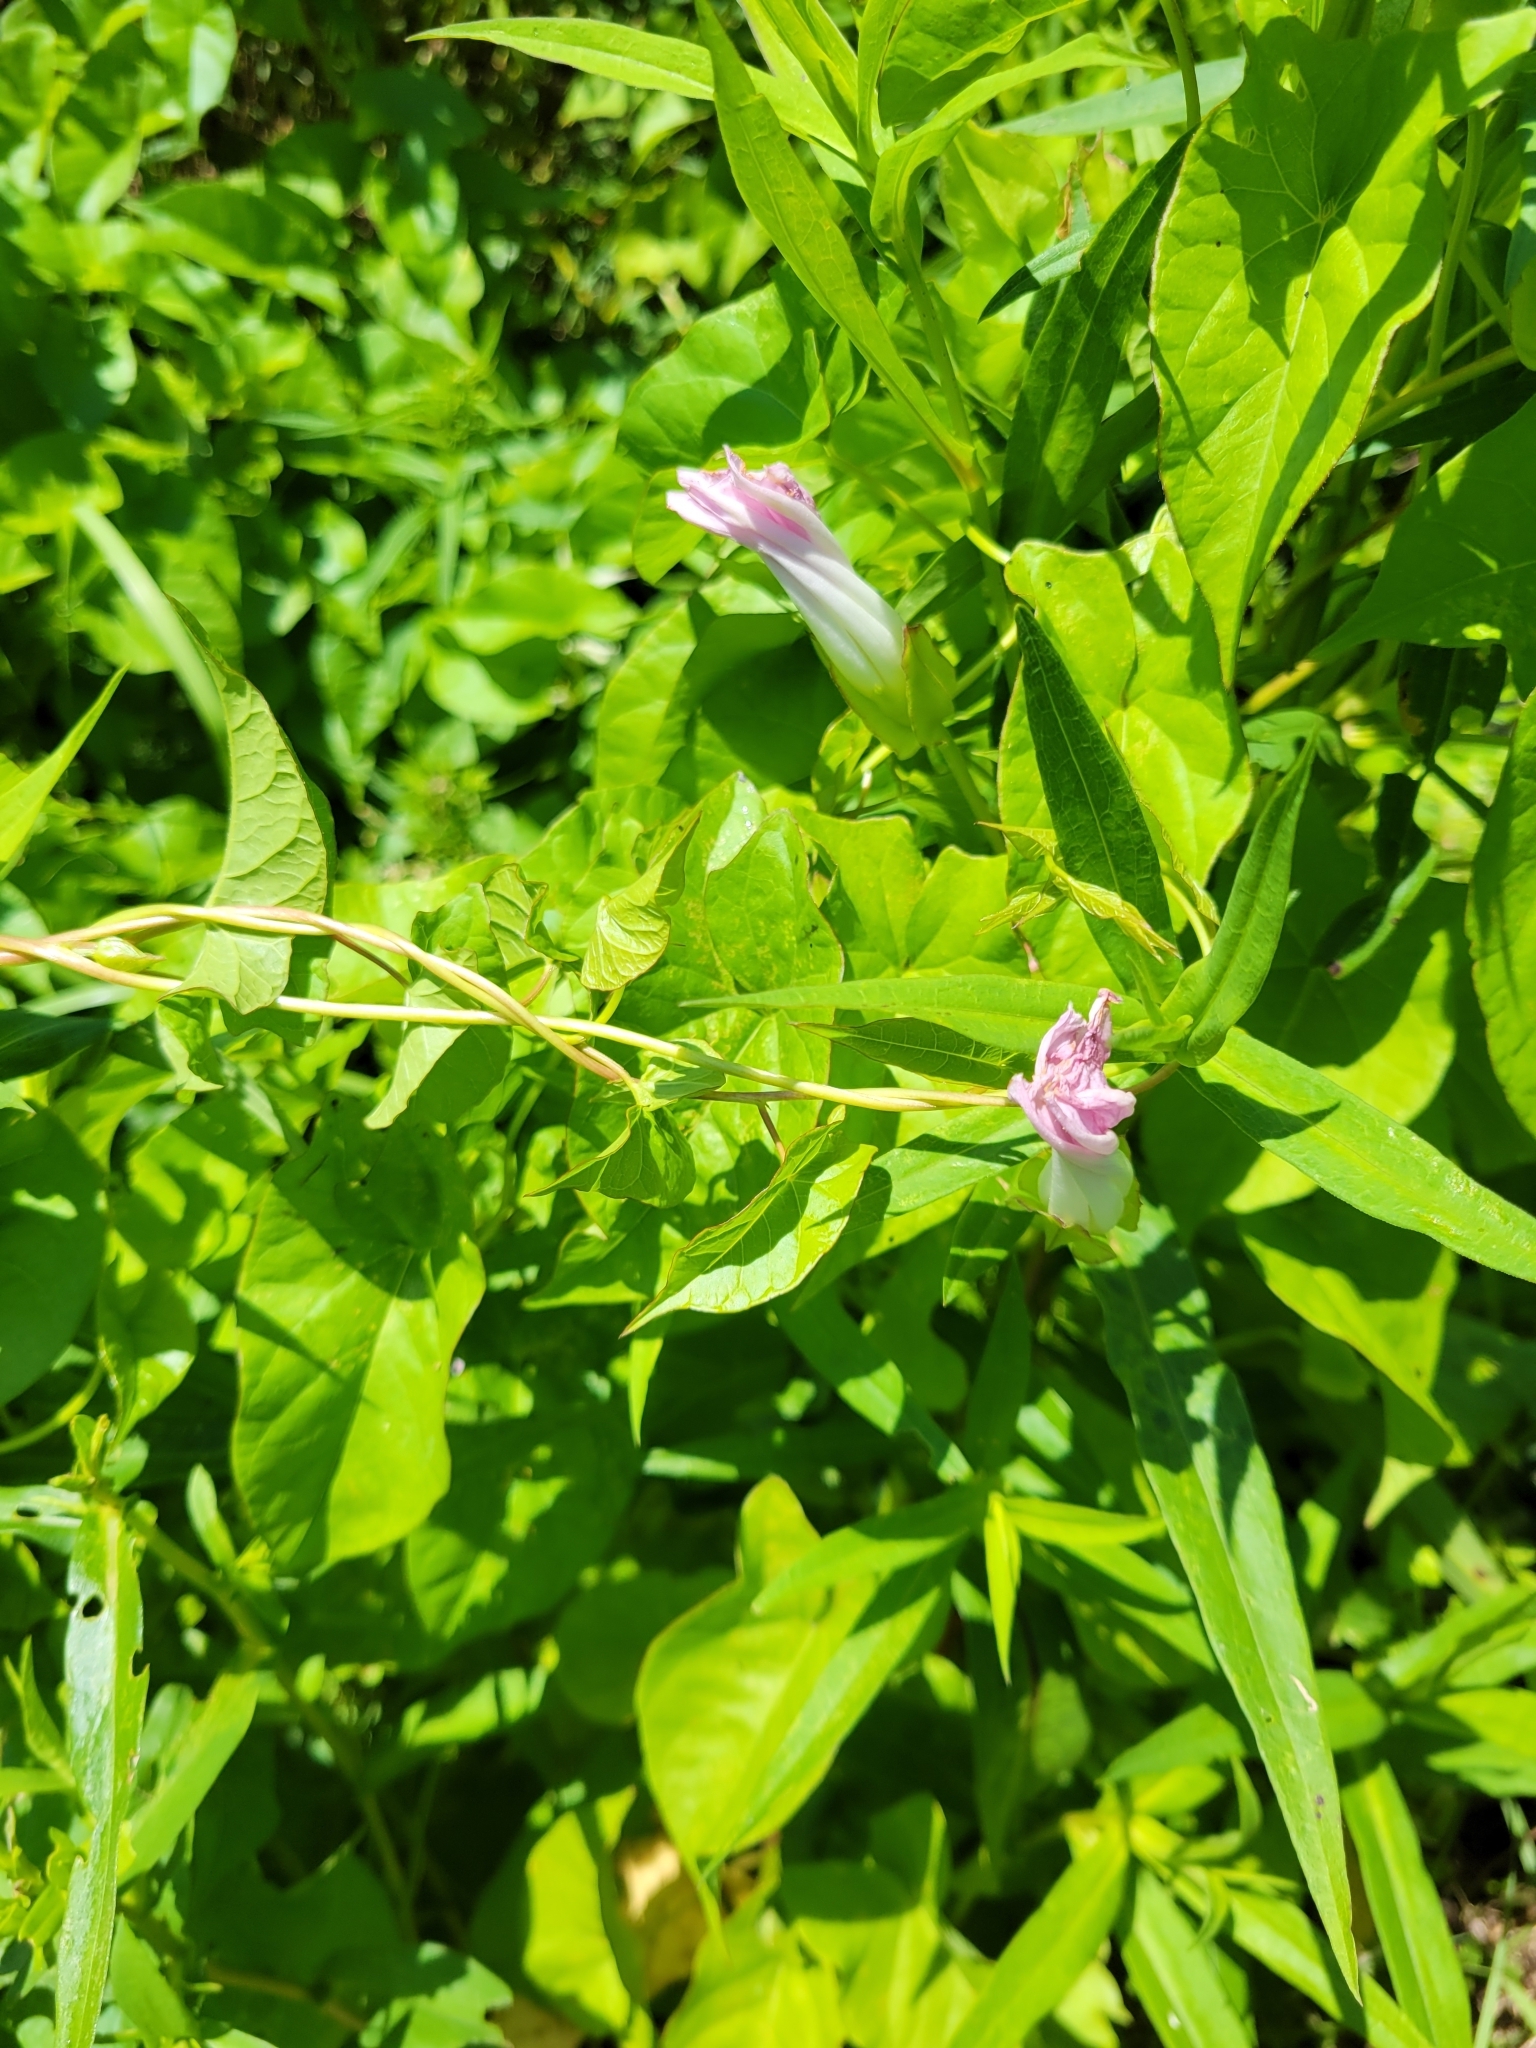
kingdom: Plantae
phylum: Tracheophyta
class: Magnoliopsida
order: Solanales
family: Convolvulaceae
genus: Calystegia
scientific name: Calystegia sepium
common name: Hedge bindweed
